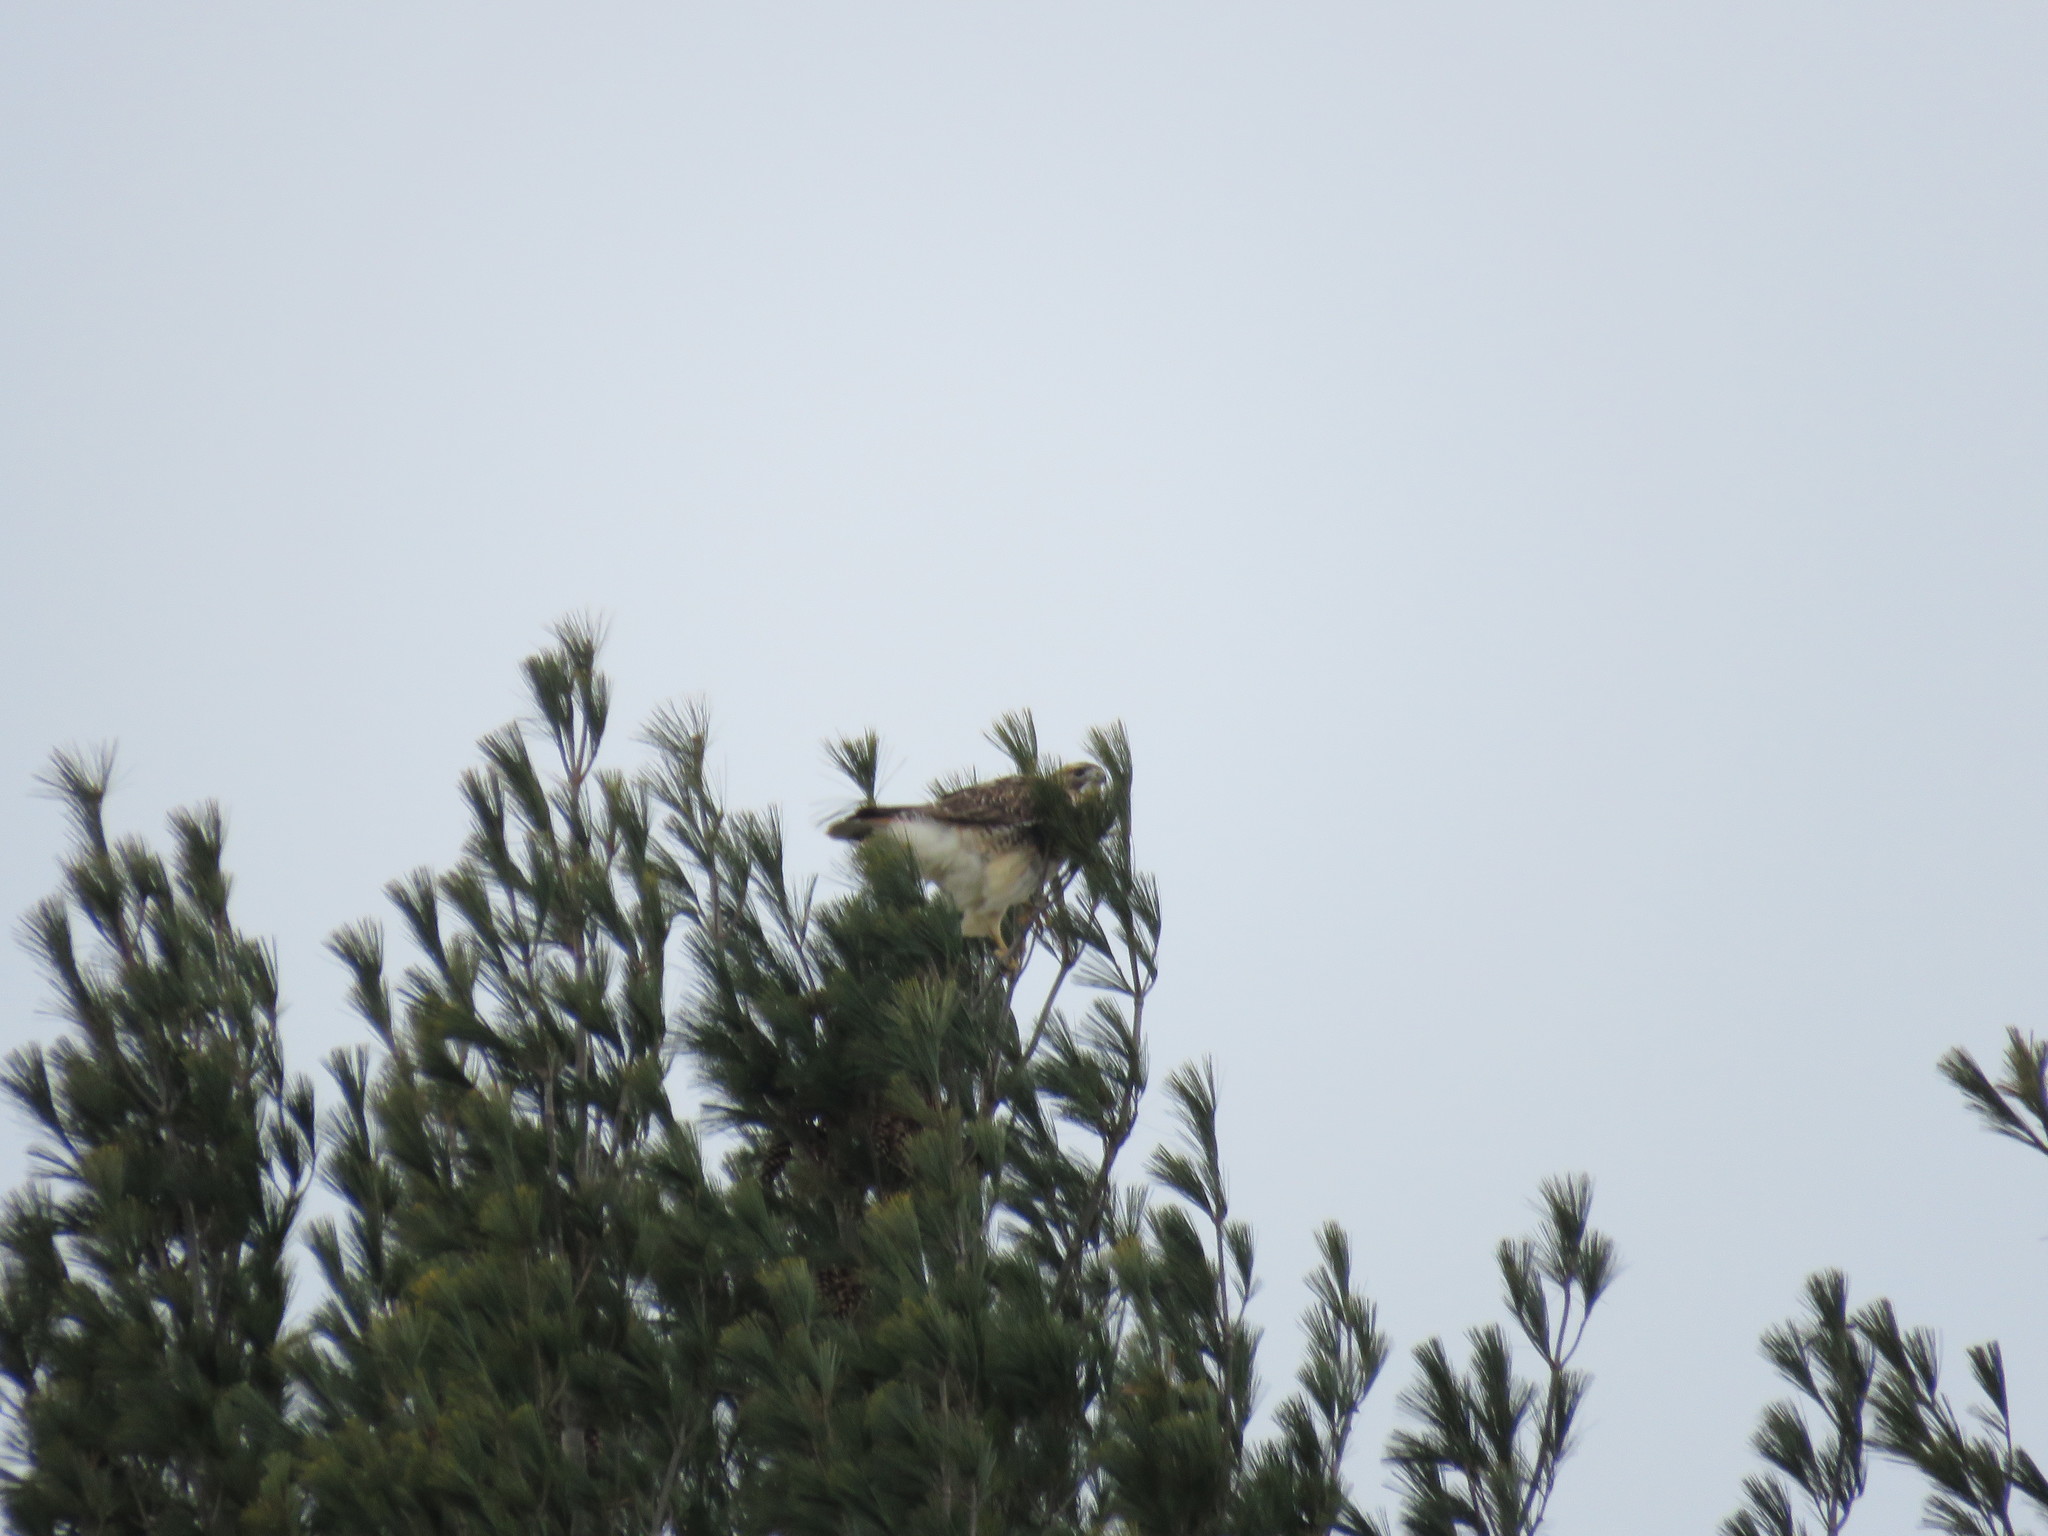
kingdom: Animalia
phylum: Chordata
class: Aves
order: Accipitriformes
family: Accipitridae
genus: Buteo
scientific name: Buteo jamaicensis
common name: Red-tailed hawk
